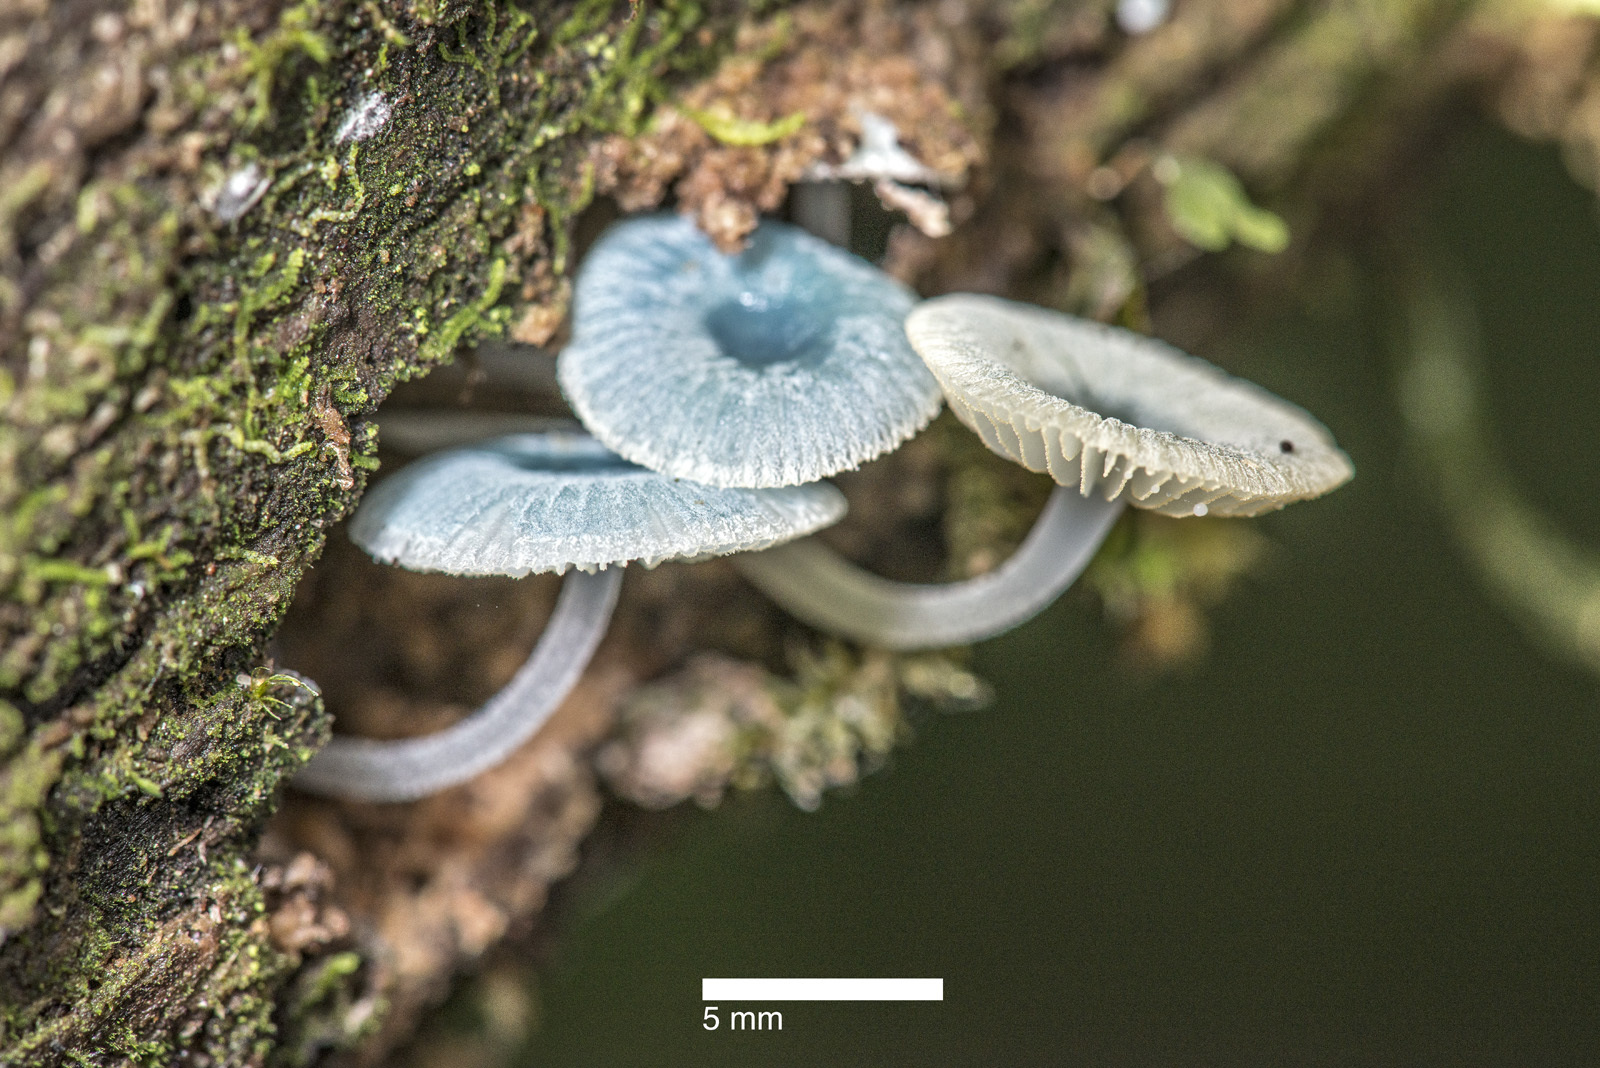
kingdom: Fungi
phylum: Basidiomycota
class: Agaricomycetes
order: Agaricales
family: Mycenaceae
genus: Mycena
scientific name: Mycena interrupta
